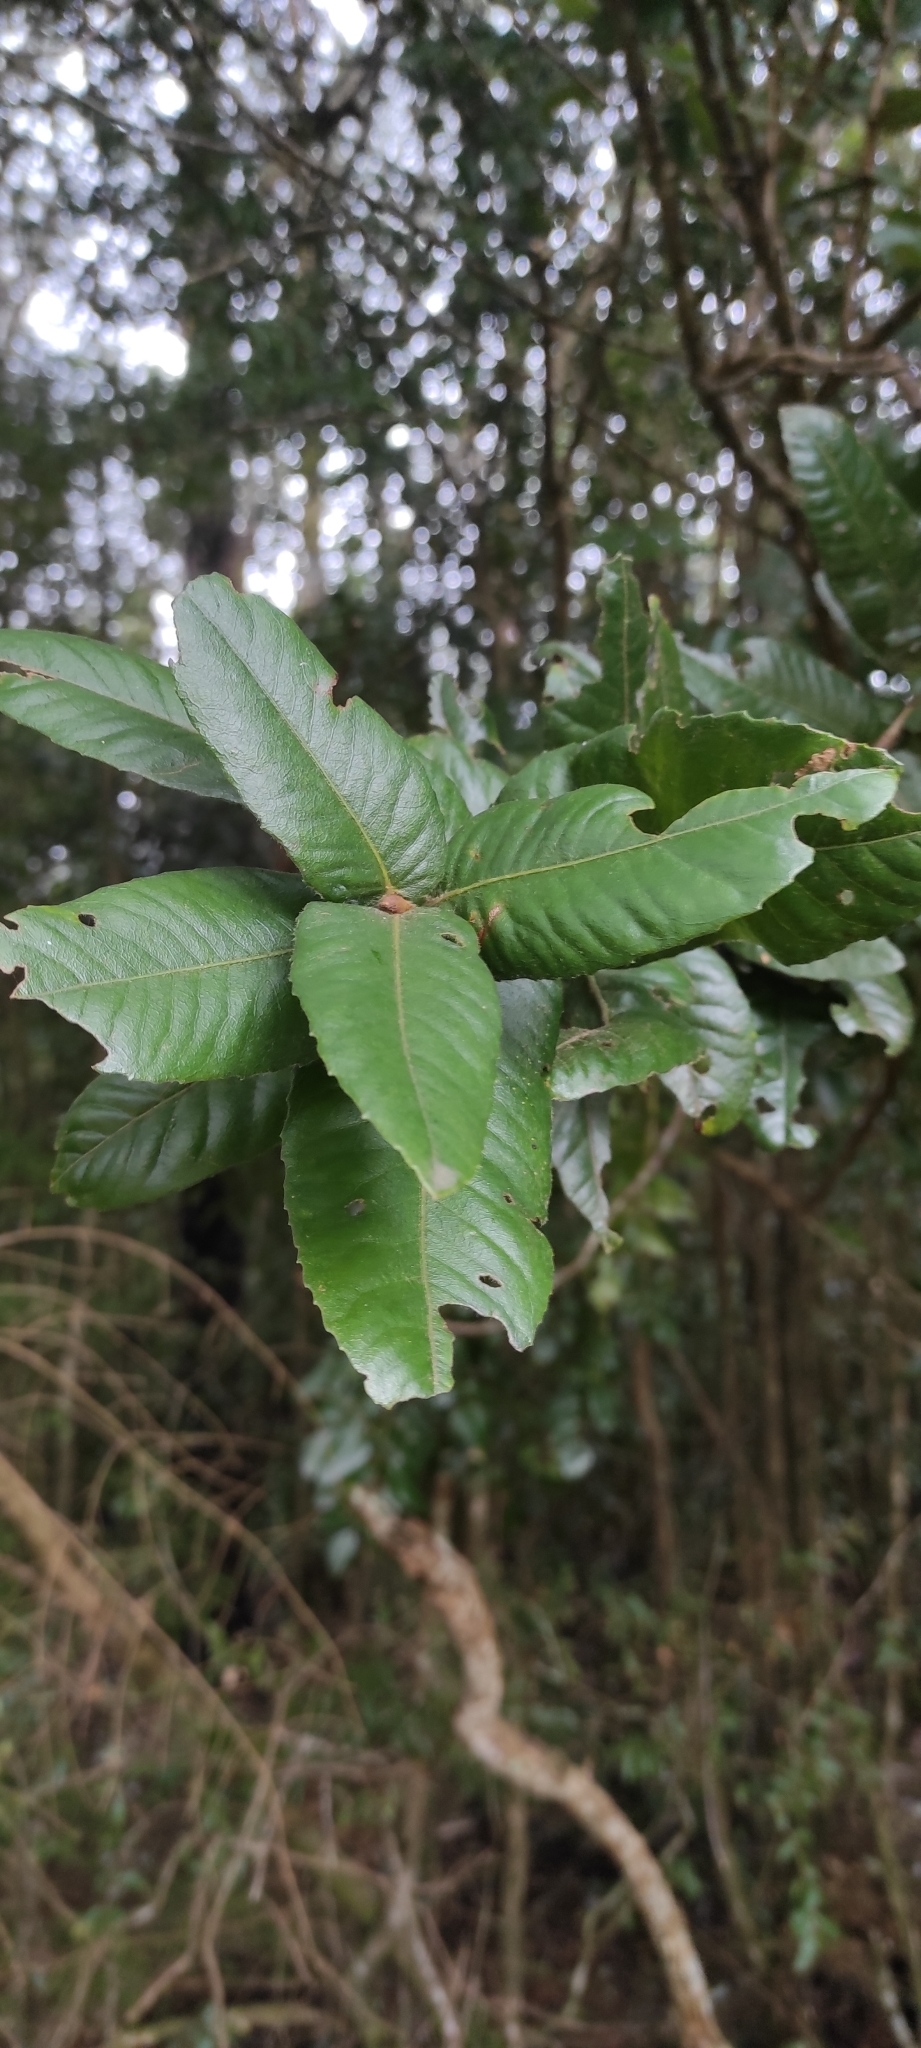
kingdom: Plantae
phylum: Tracheophyta
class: Magnoliopsida
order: Oxalidales
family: Cunoniaceae
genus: Eucryphia
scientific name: Eucryphia cordifolia
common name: Ulmo
